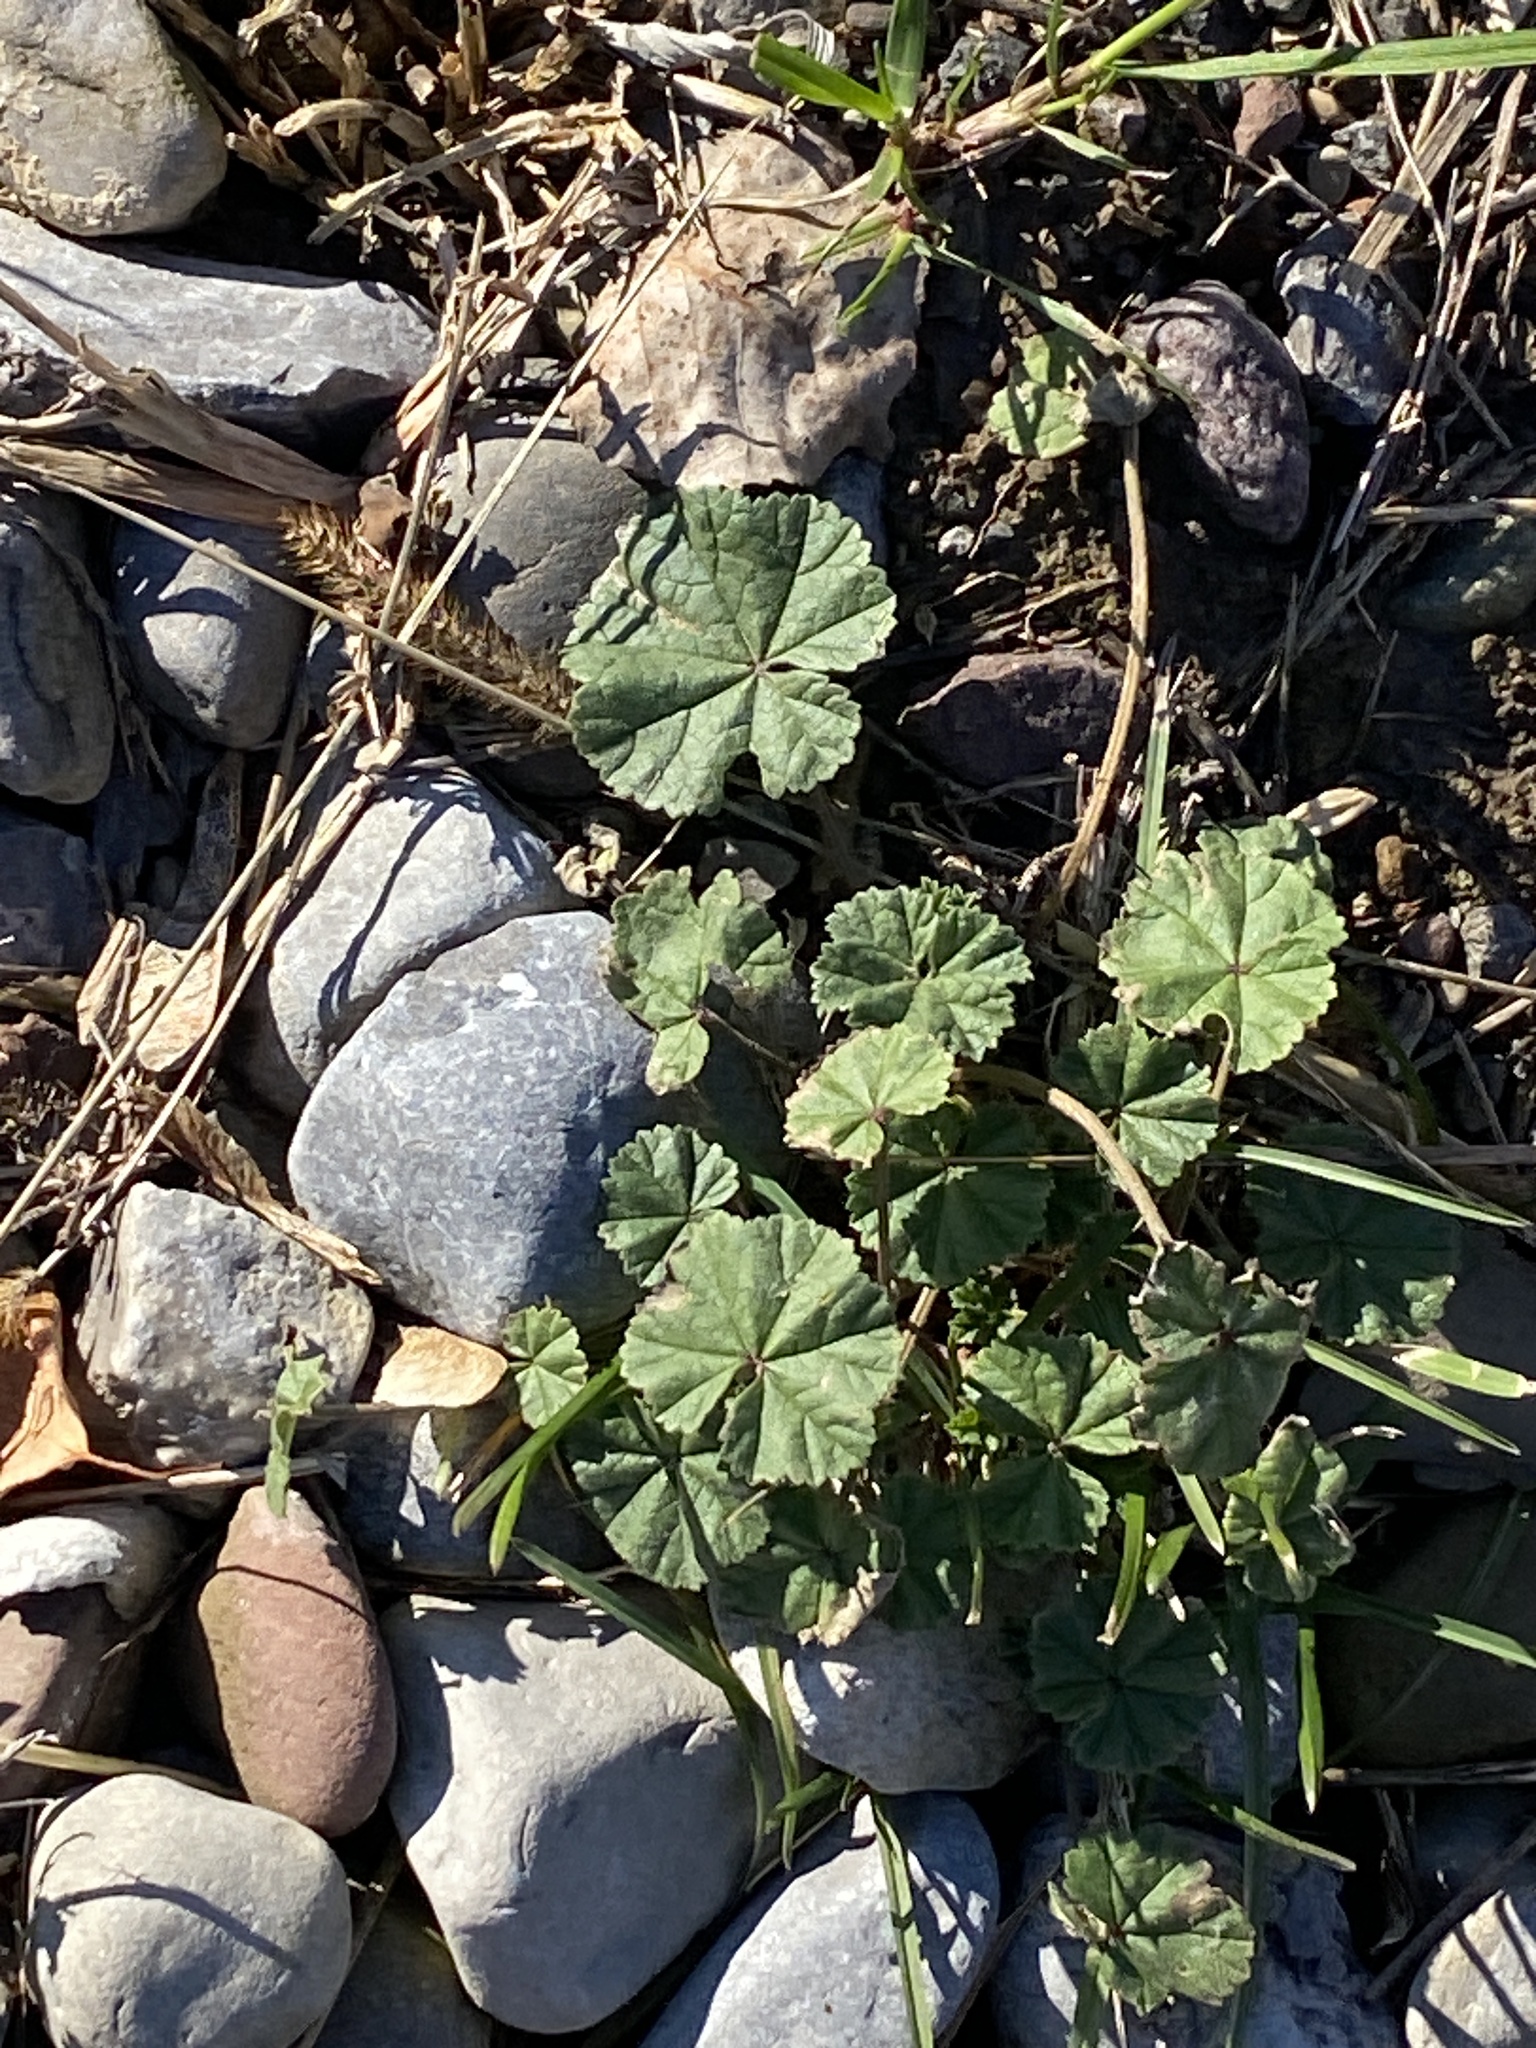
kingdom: Plantae
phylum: Tracheophyta
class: Magnoliopsida
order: Malvales
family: Malvaceae
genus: Malva
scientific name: Malva neglecta
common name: Common mallow
